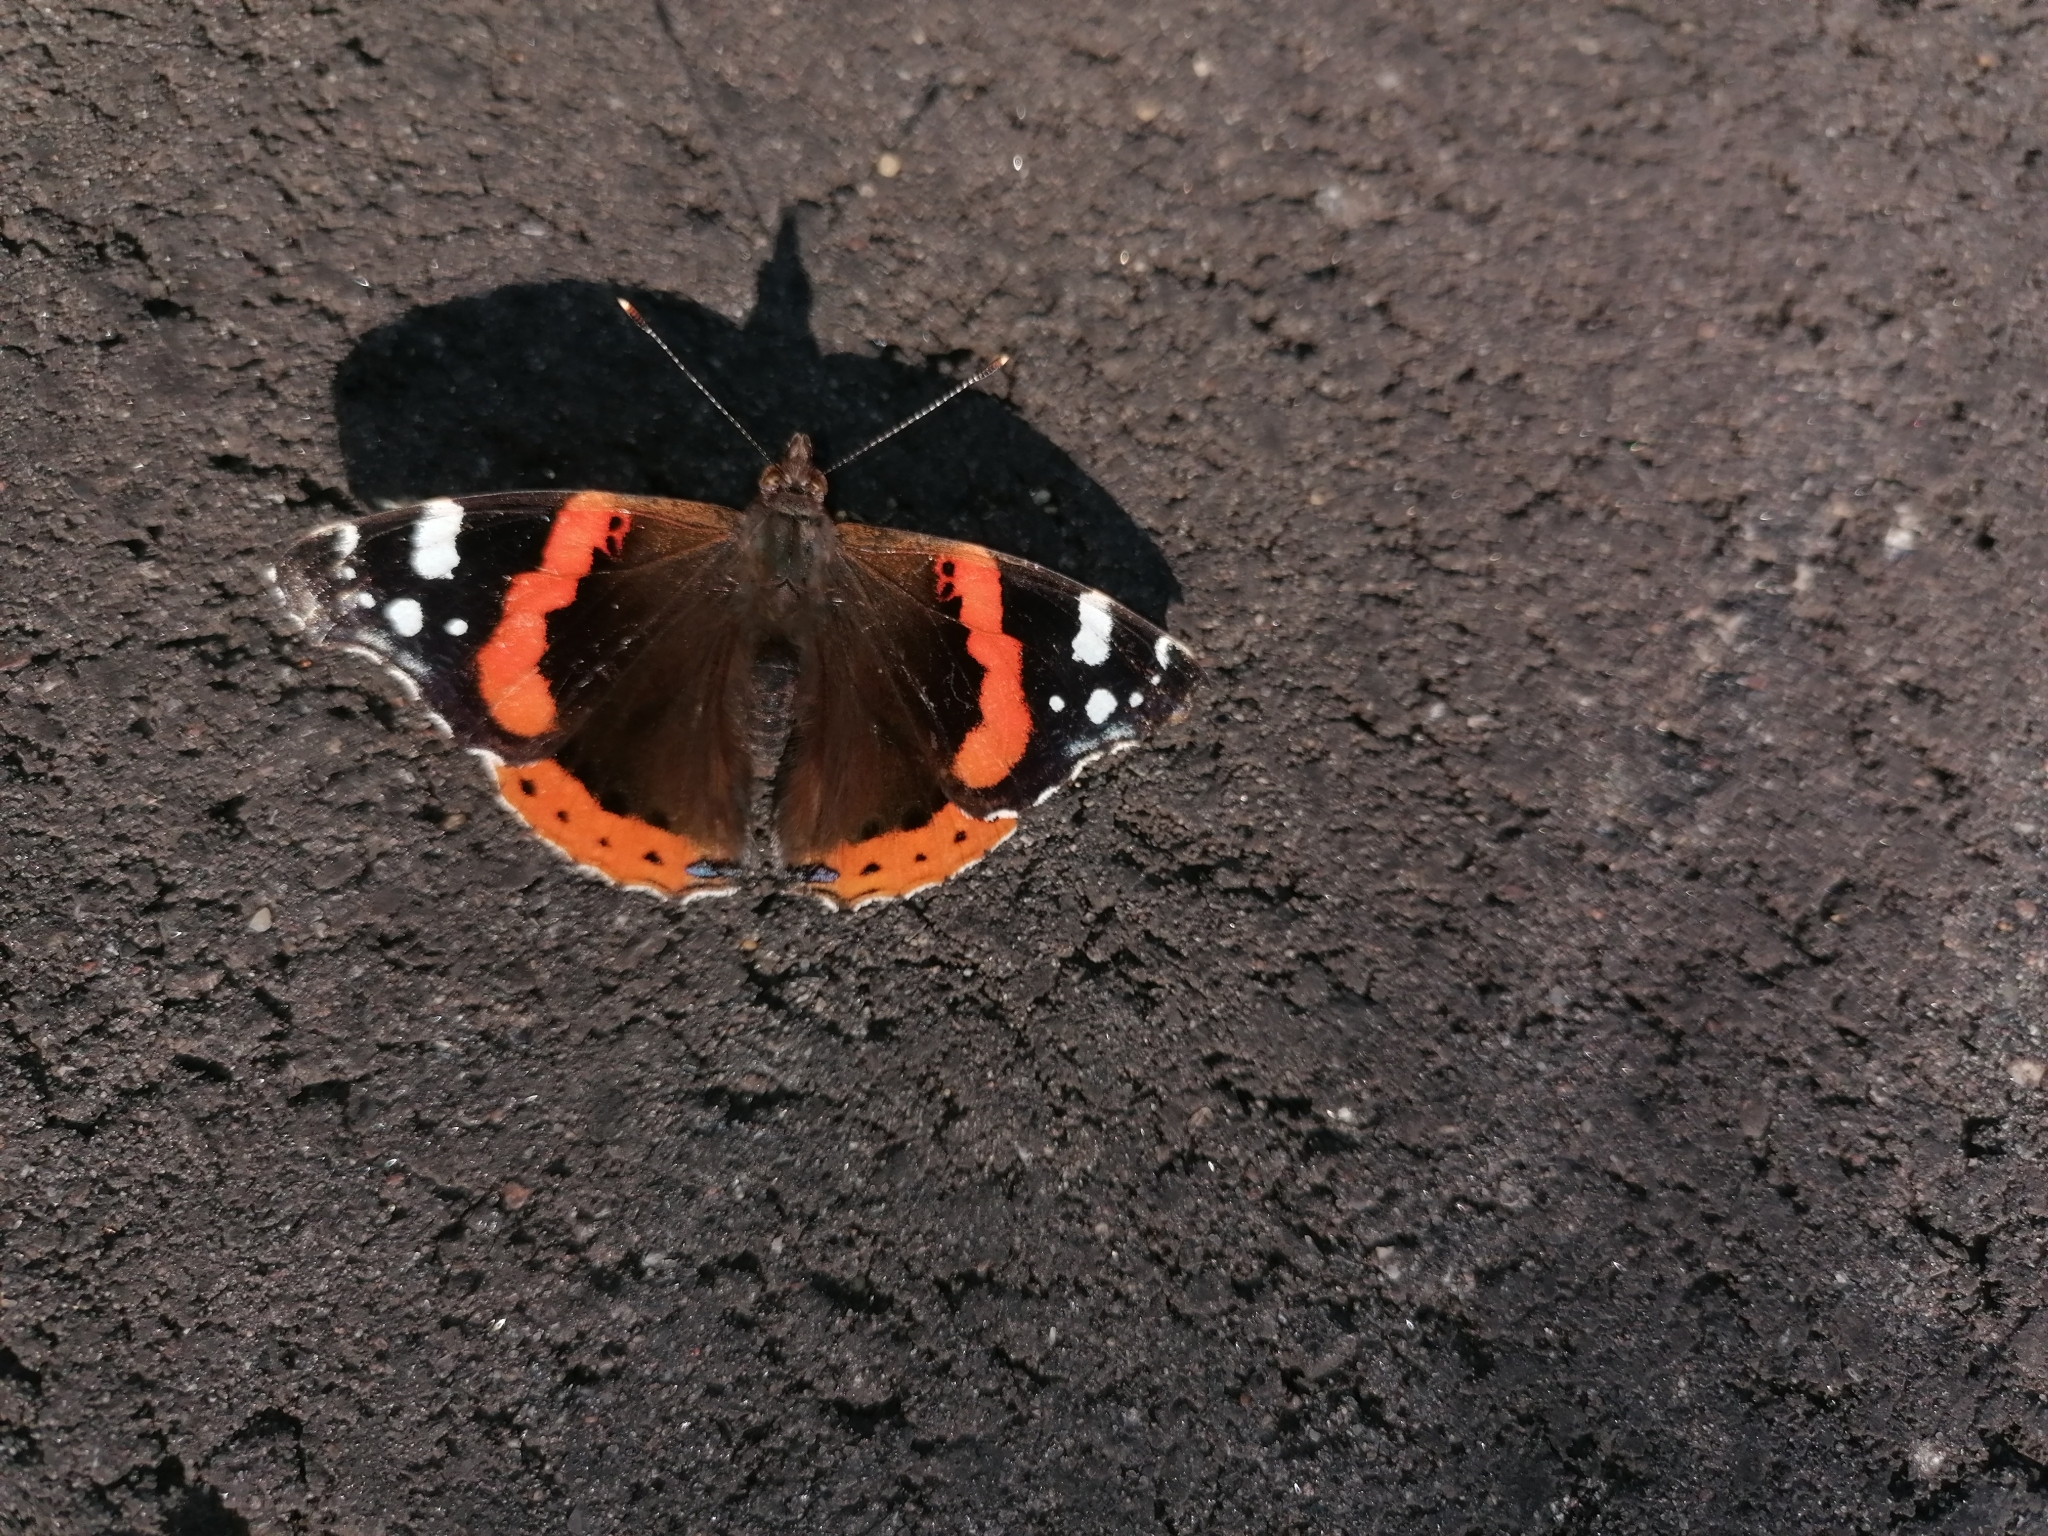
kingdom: Animalia
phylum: Arthropoda
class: Insecta
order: Lepidoptera
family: Nymphalidae
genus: Vanessa
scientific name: Vanessa atalanta
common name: Red admiral
